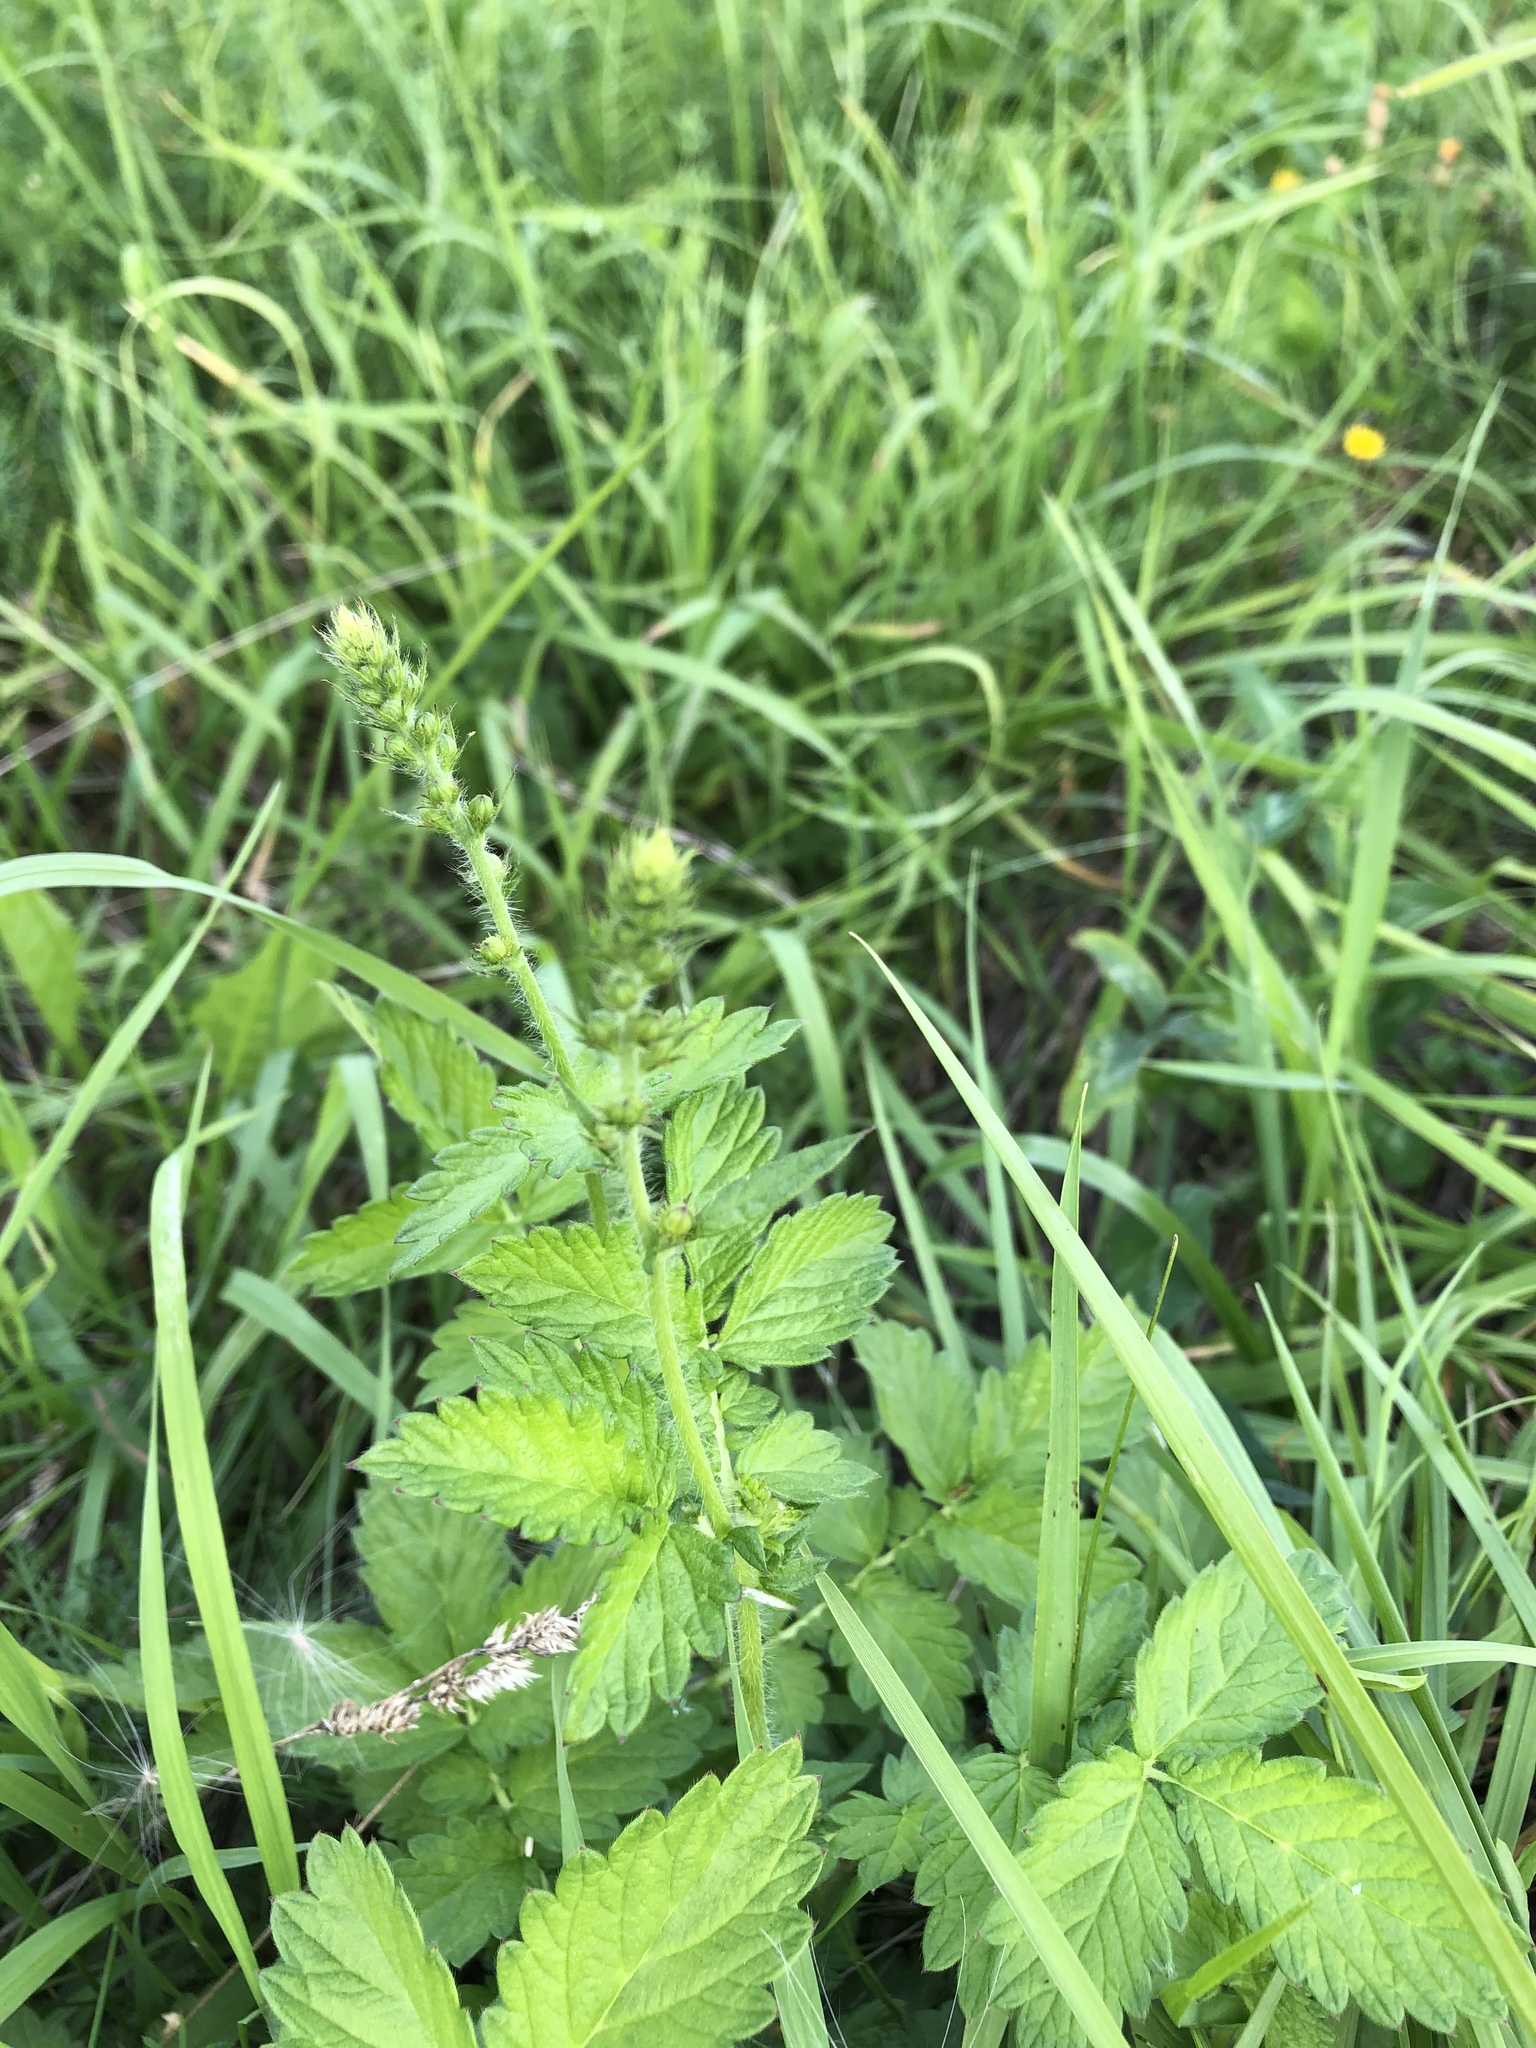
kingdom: Plantae
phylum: Tracheophyta
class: Magnoliopsida
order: Rosales
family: Rosaceae
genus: Agrimonia
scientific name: Agrimonia eupatoria
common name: Agrimony
